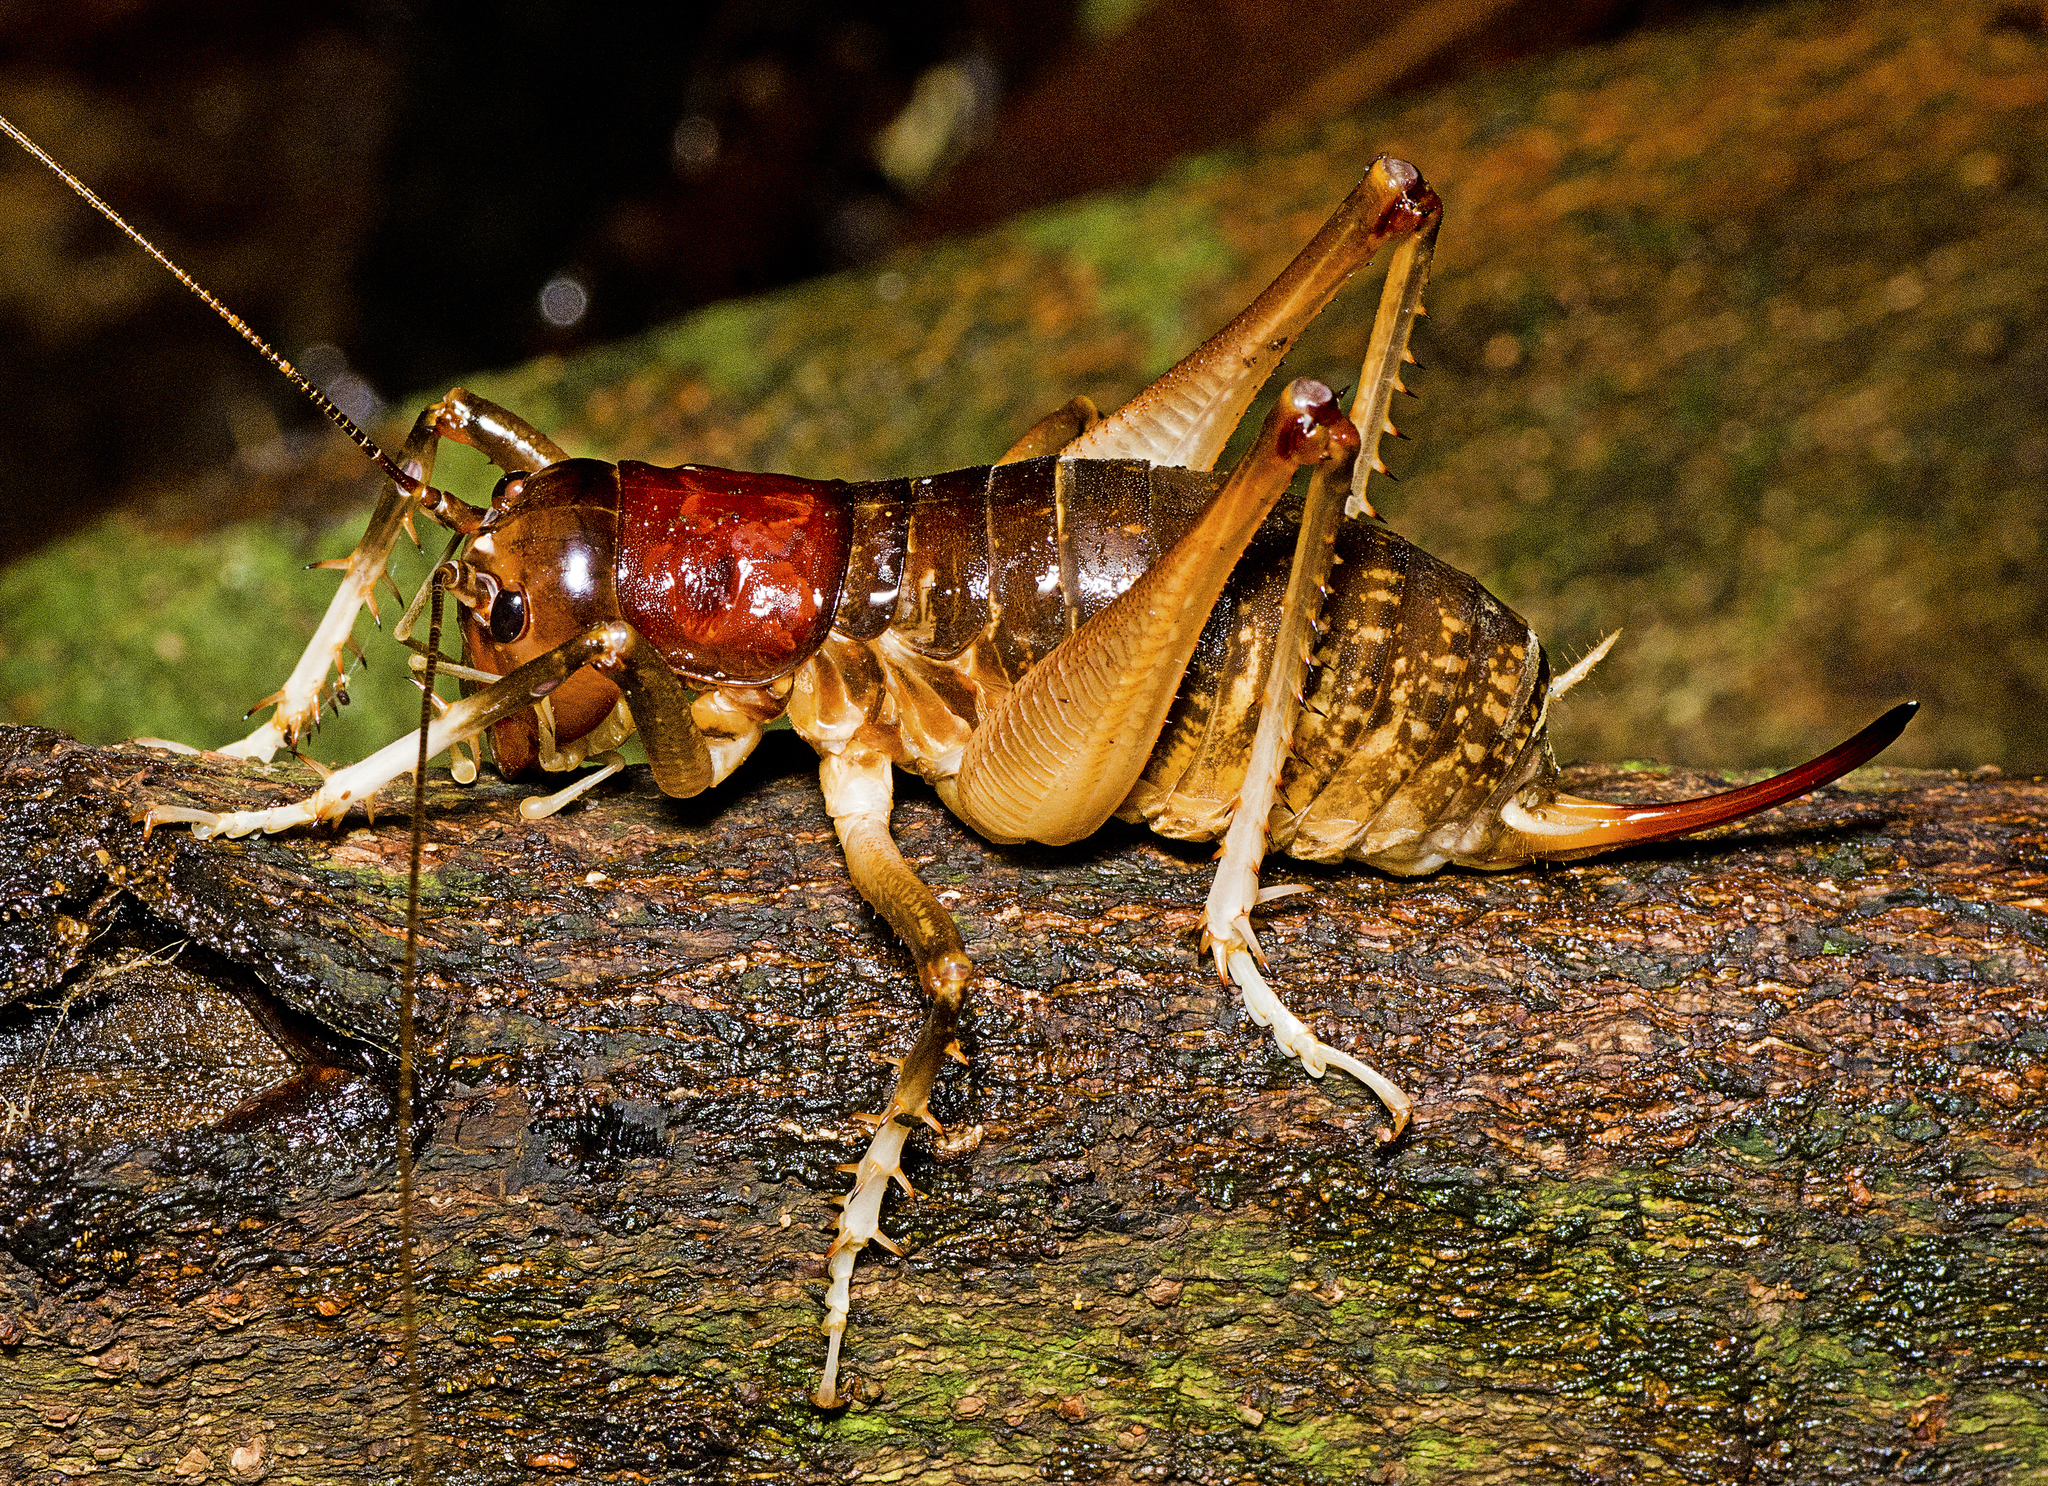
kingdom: Animalia
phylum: Arthropoda
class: Insecta
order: Orthoptera
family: Anostostomatidae
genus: Anostostoma
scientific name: Anostostoma australasiae
